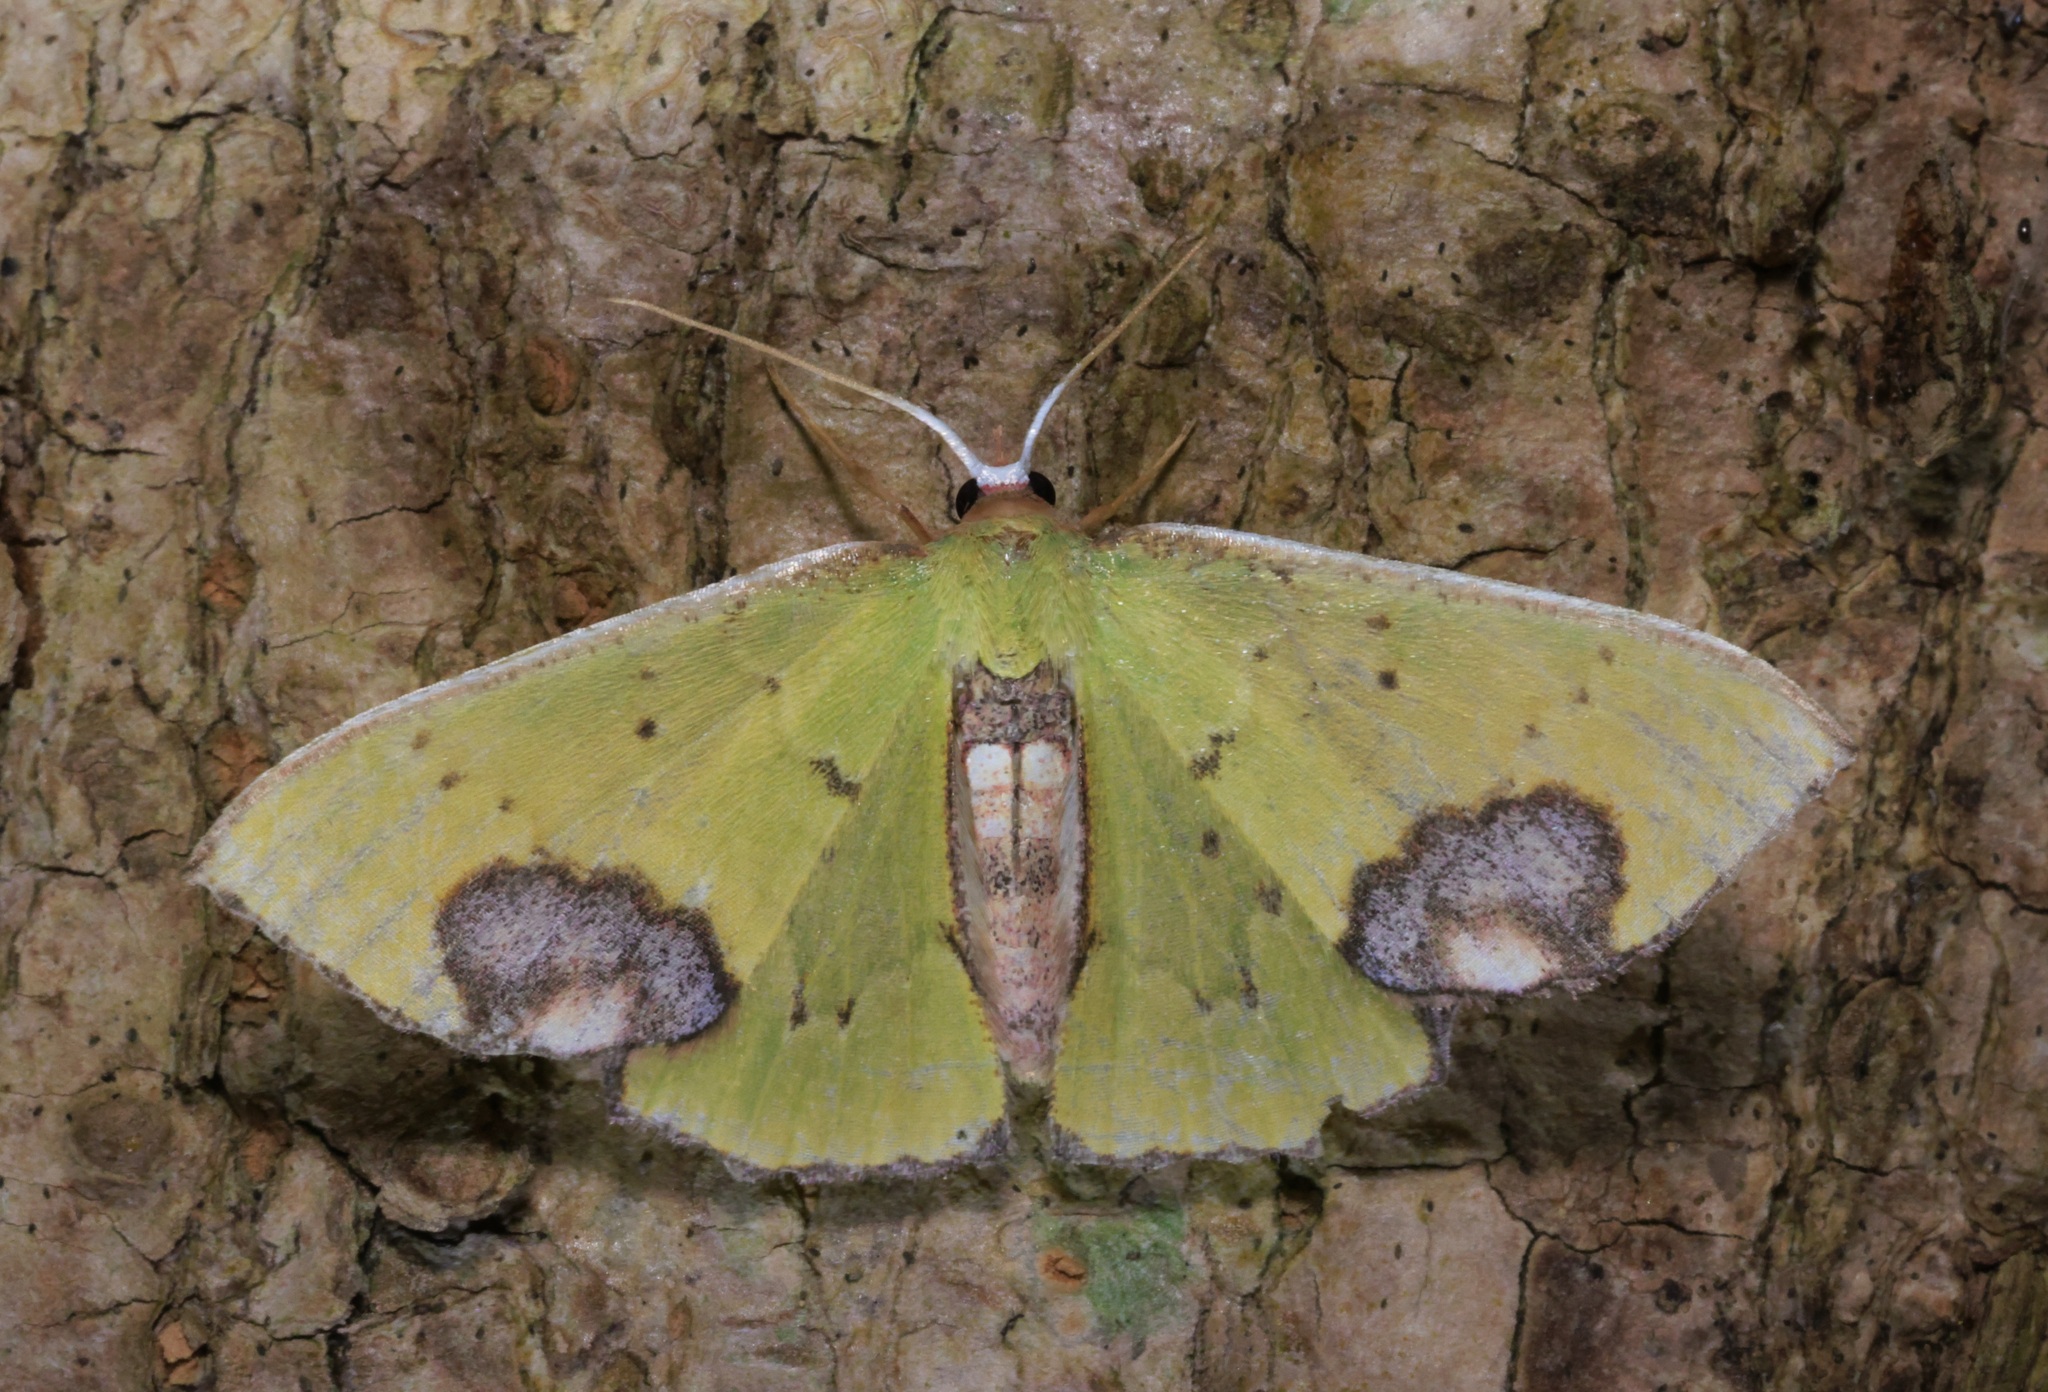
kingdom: Animalia
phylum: Arthropoda
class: Insecta
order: Lepidoptera
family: Geometridae
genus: Spaniocentra
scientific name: Spaniocentra kuniyukii
